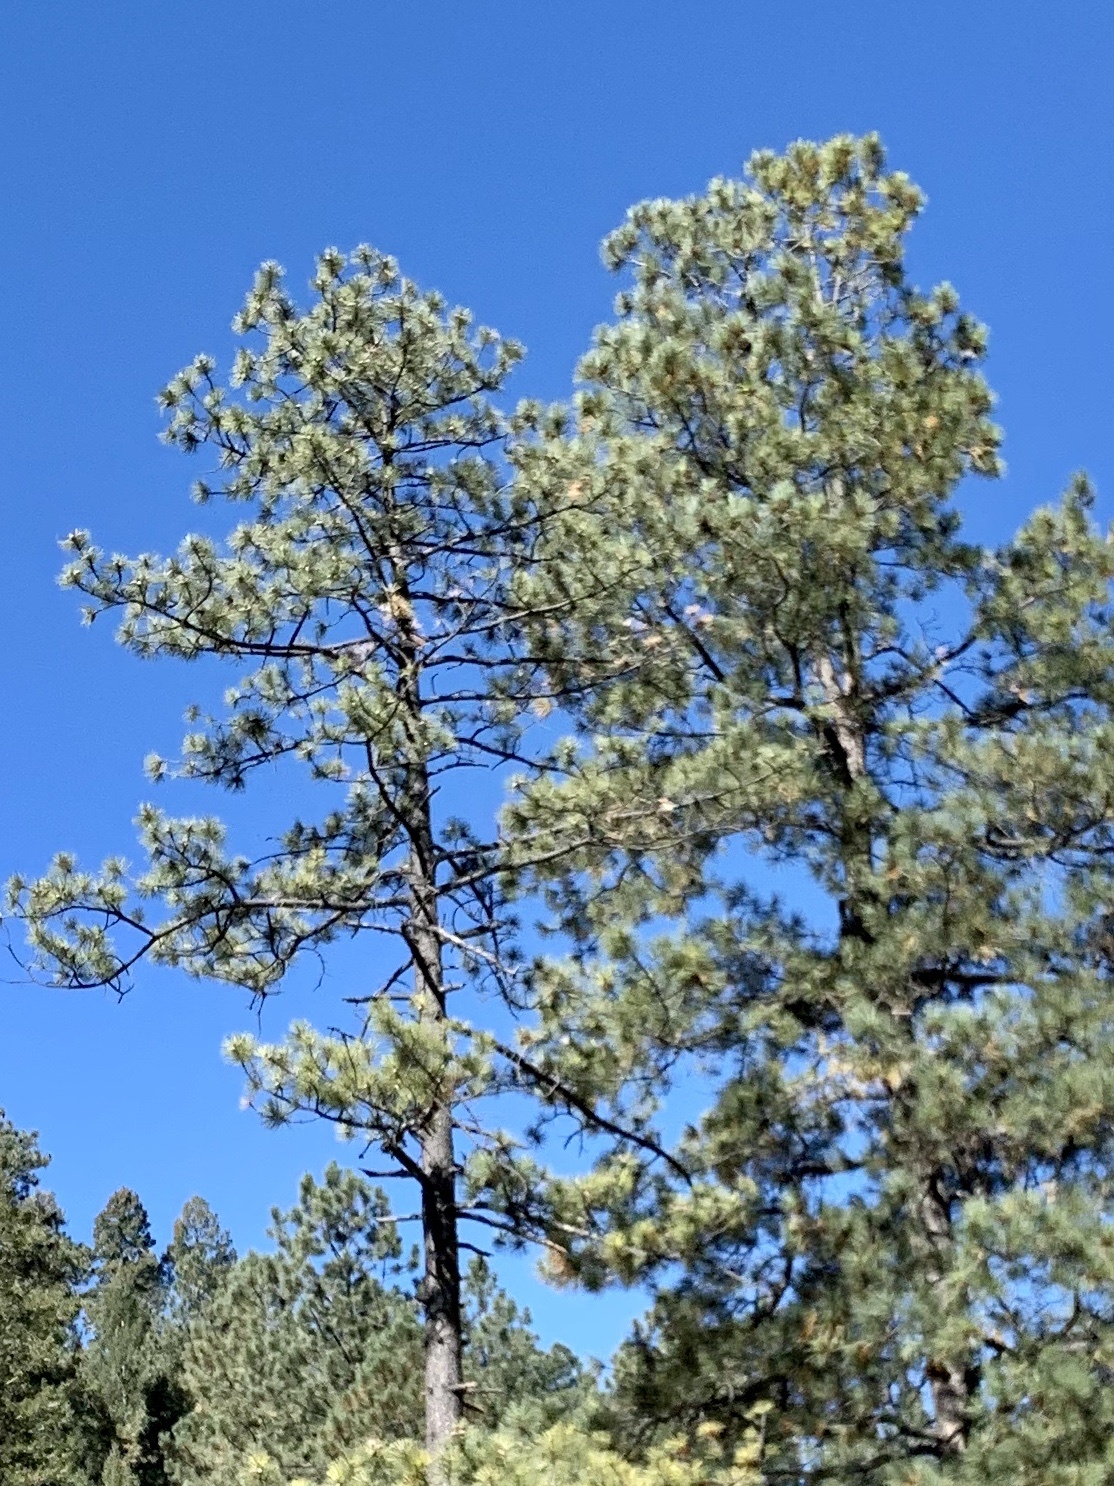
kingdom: Plantae
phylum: Tracheophyta
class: Pinopsida
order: Pinales
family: Pinaceae
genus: Pinus
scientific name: Pinus ponderosa
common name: Western yellow-pine
